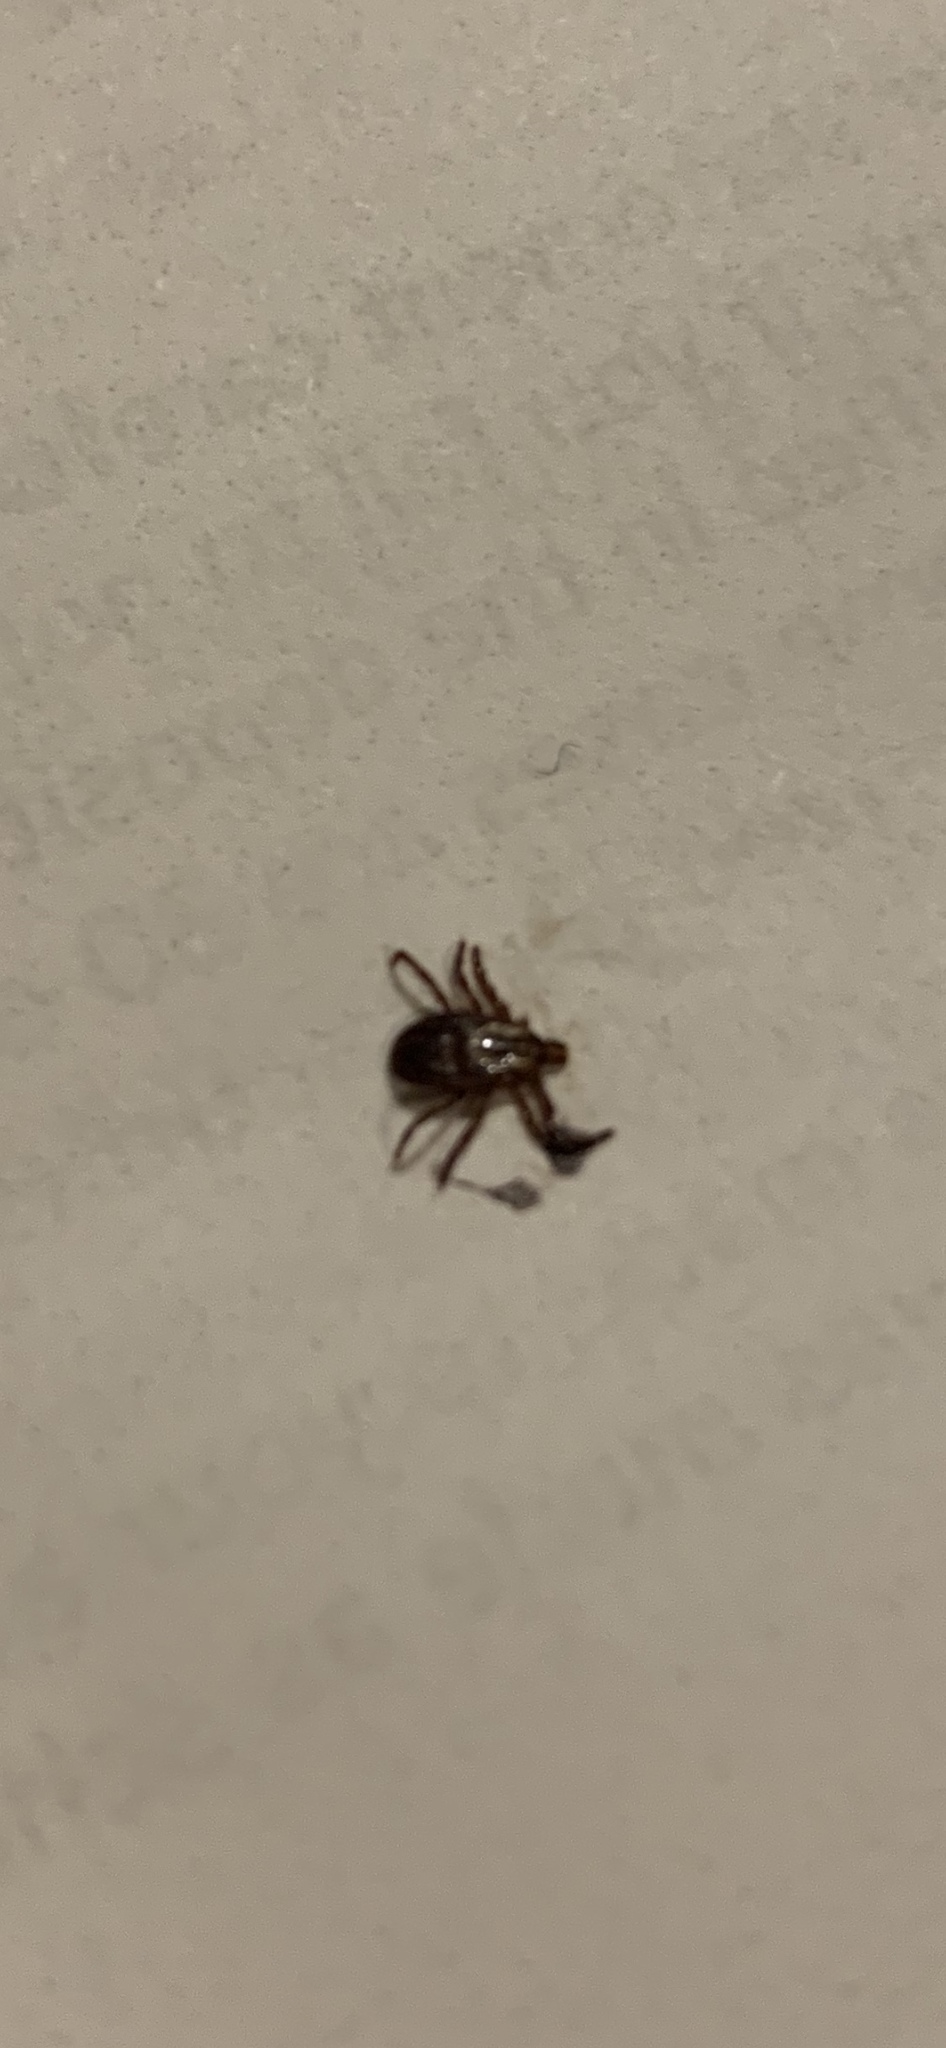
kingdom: Animalia
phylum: Arthropoda
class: Arachnida
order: Ixodida
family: Ixodidae
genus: Dermacentor
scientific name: Dermacentor variabilis
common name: American dog tick
